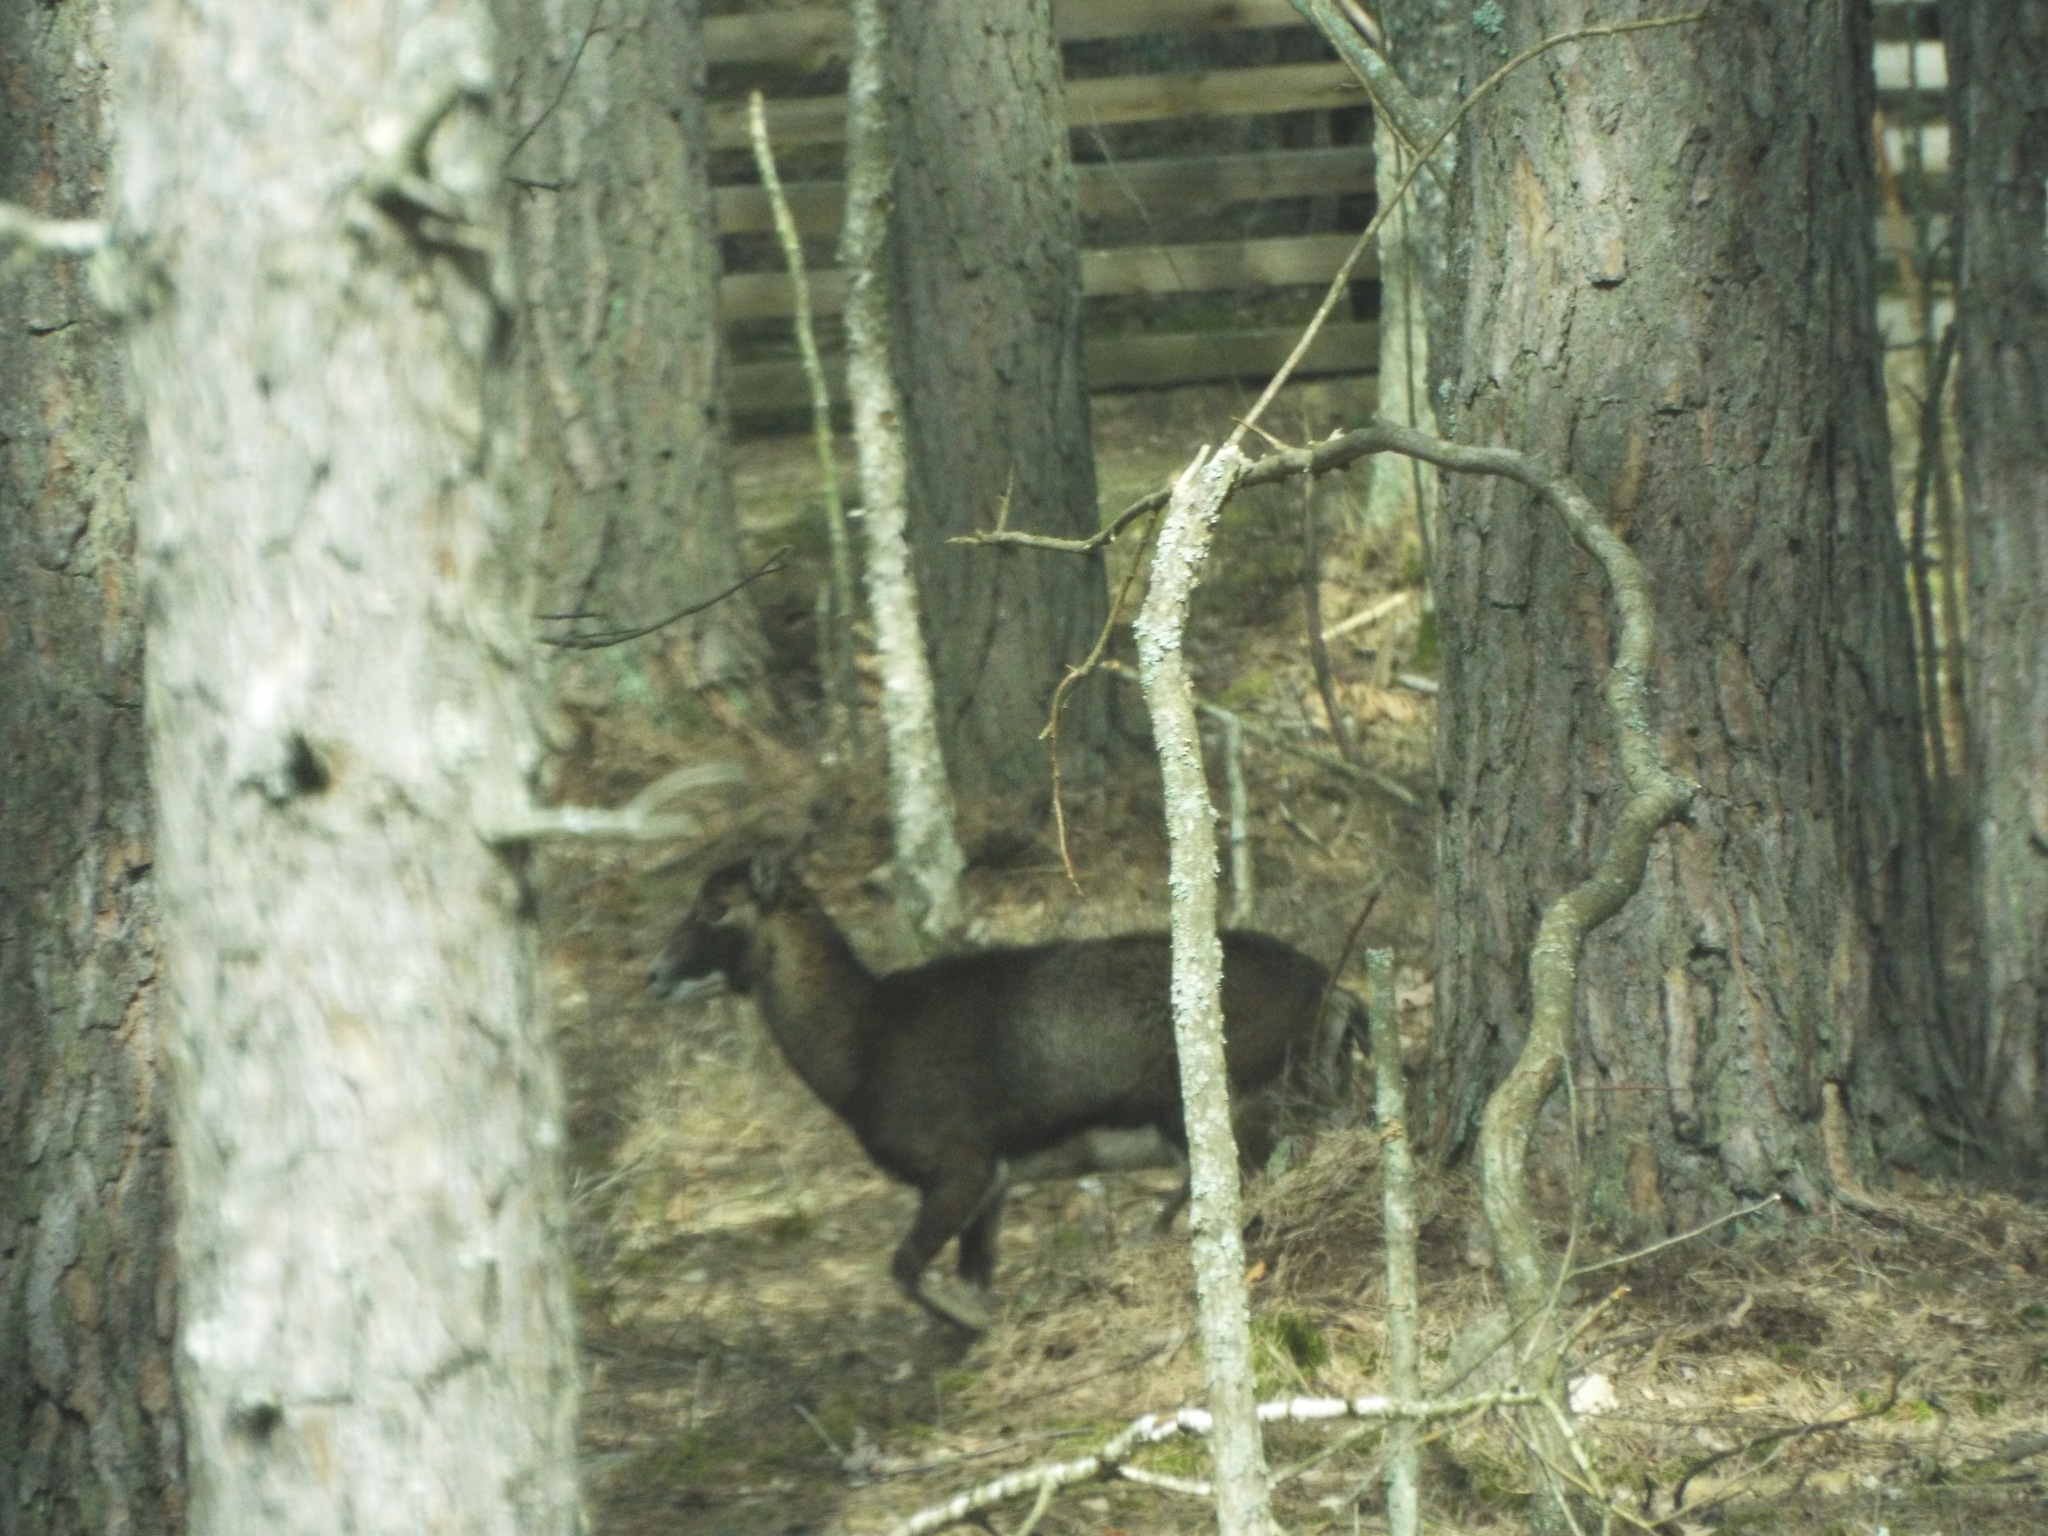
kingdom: Animalia
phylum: Chordata
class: Mammalia
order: Artiodactyla
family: Bovidae
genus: Ovis
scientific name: Ovis aries
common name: Domestic sheep
